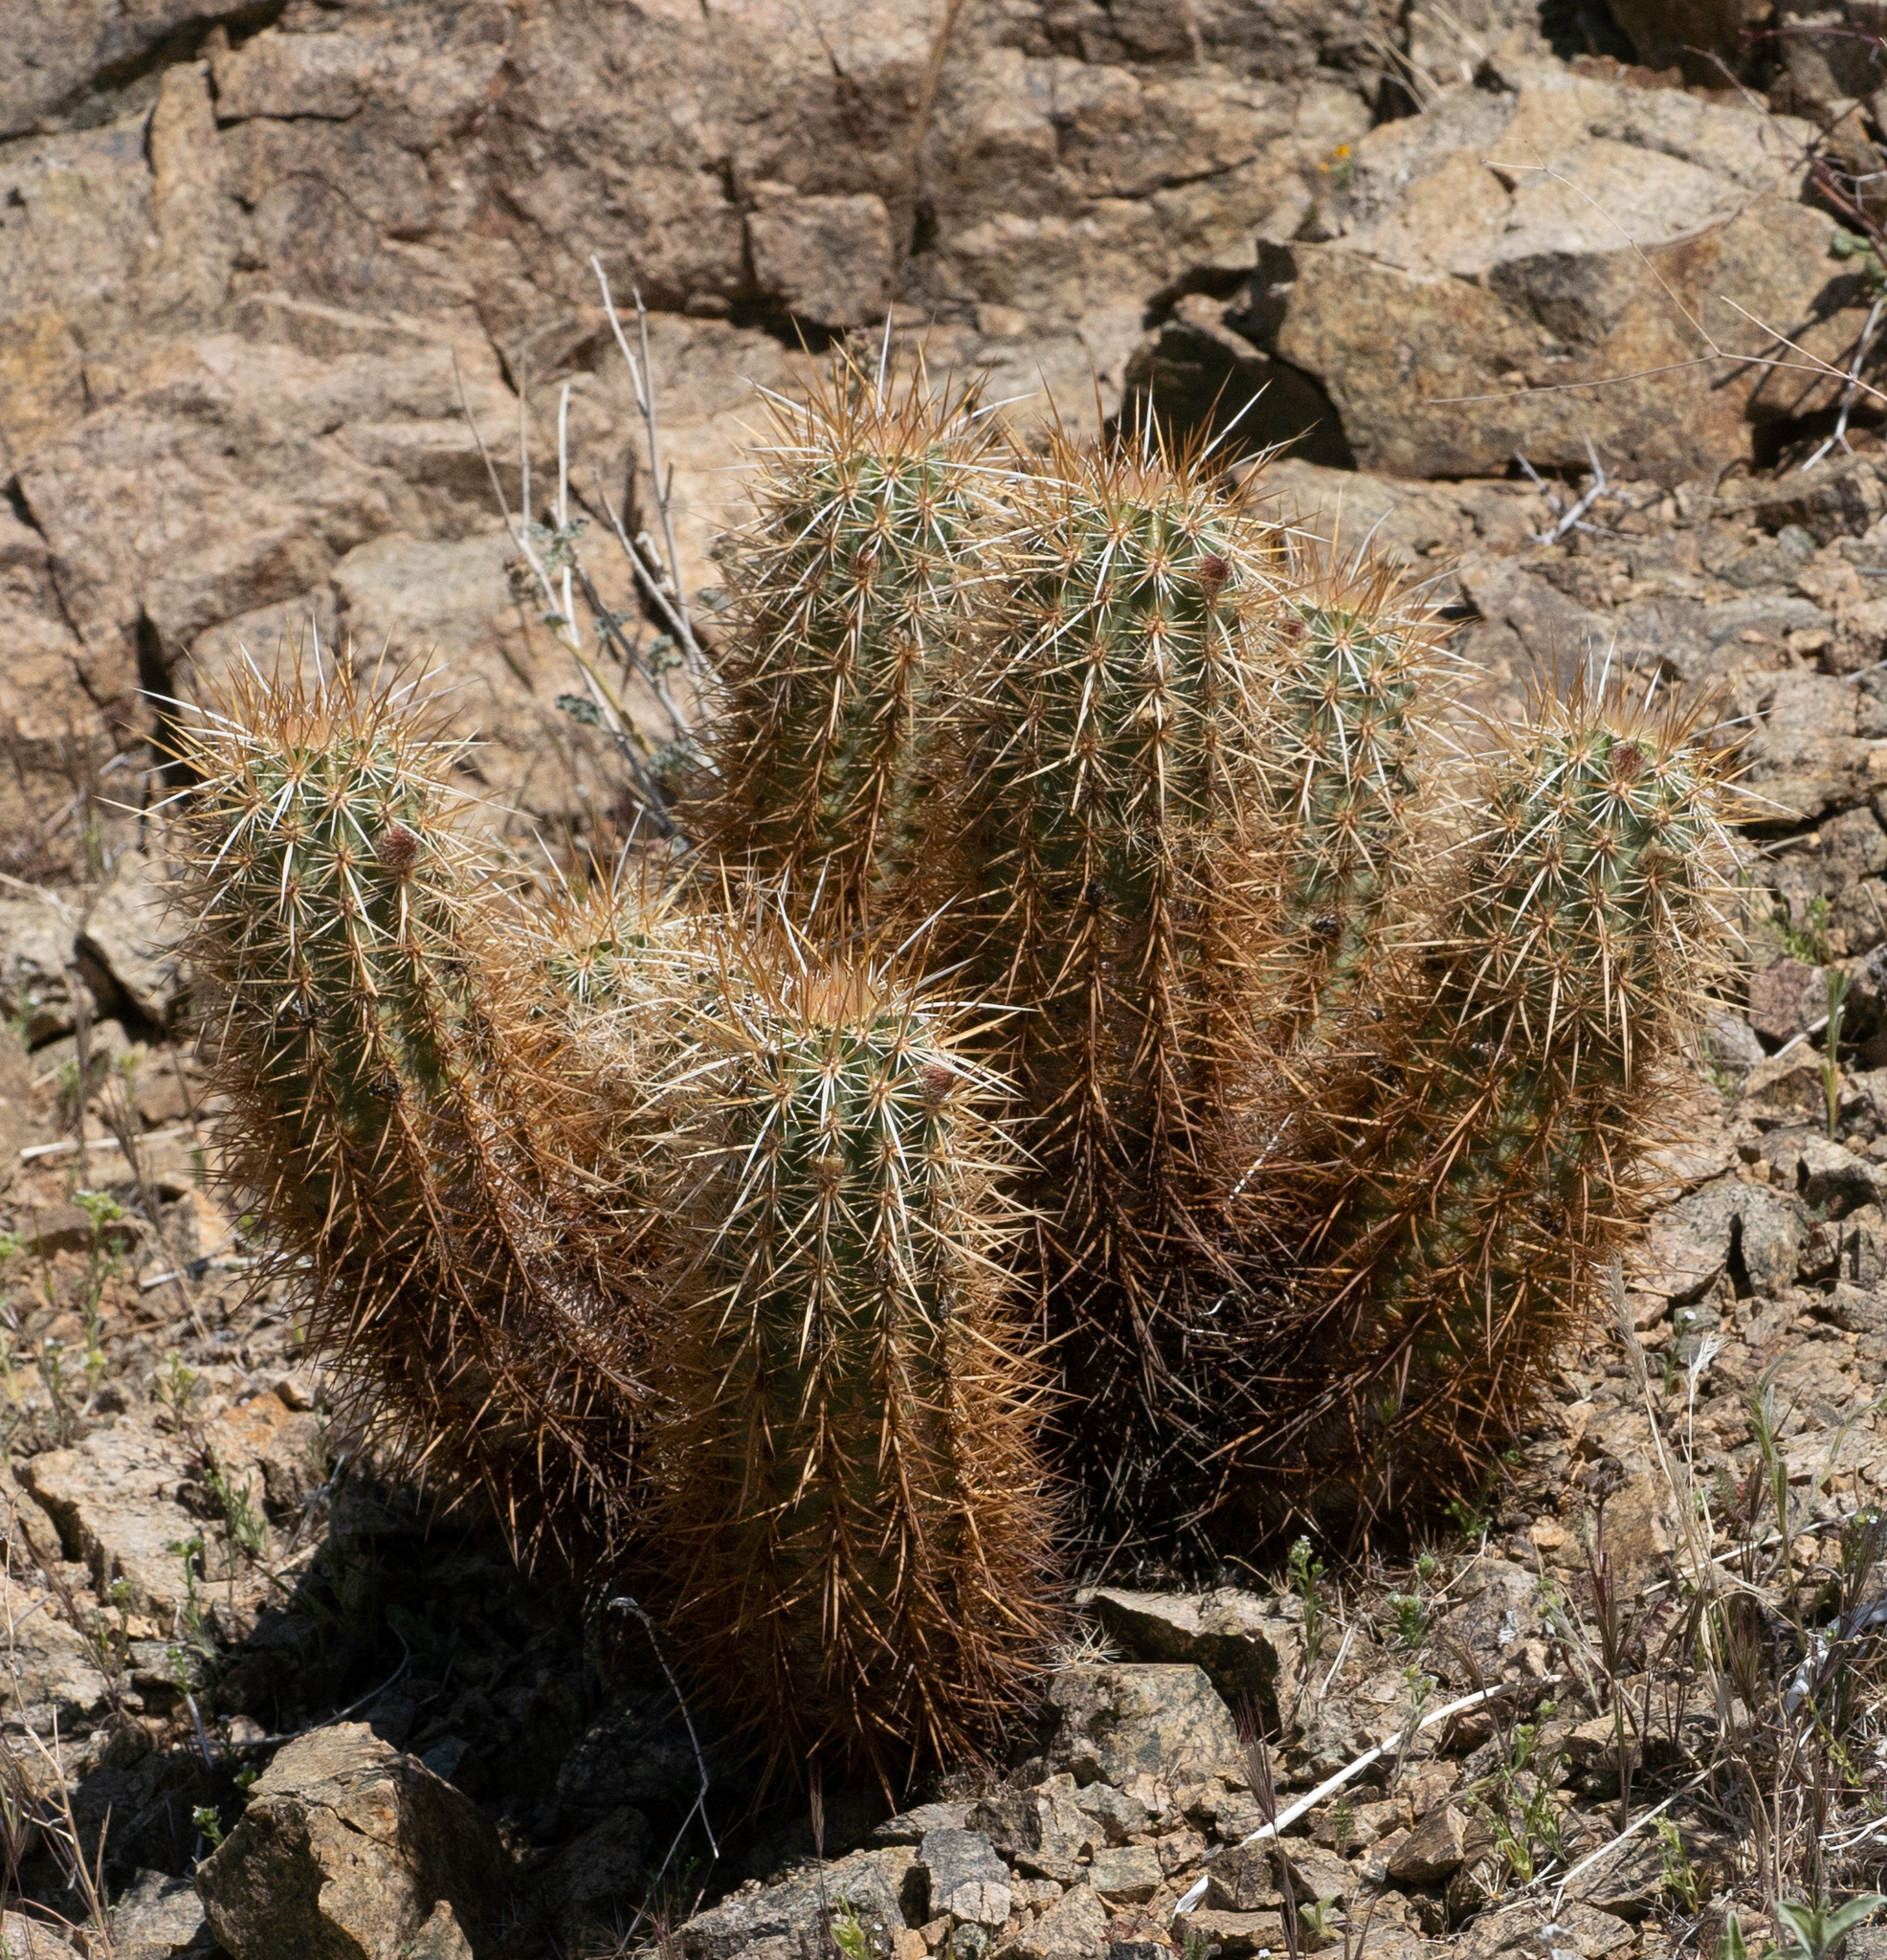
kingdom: Plantae
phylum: Tracheophyta
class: Magnoliopsida
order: Caryophyllales
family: Cactaceae
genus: Echinocereus
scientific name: Echinocereus engelmannii
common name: Engelmann's hedgehog cactus
